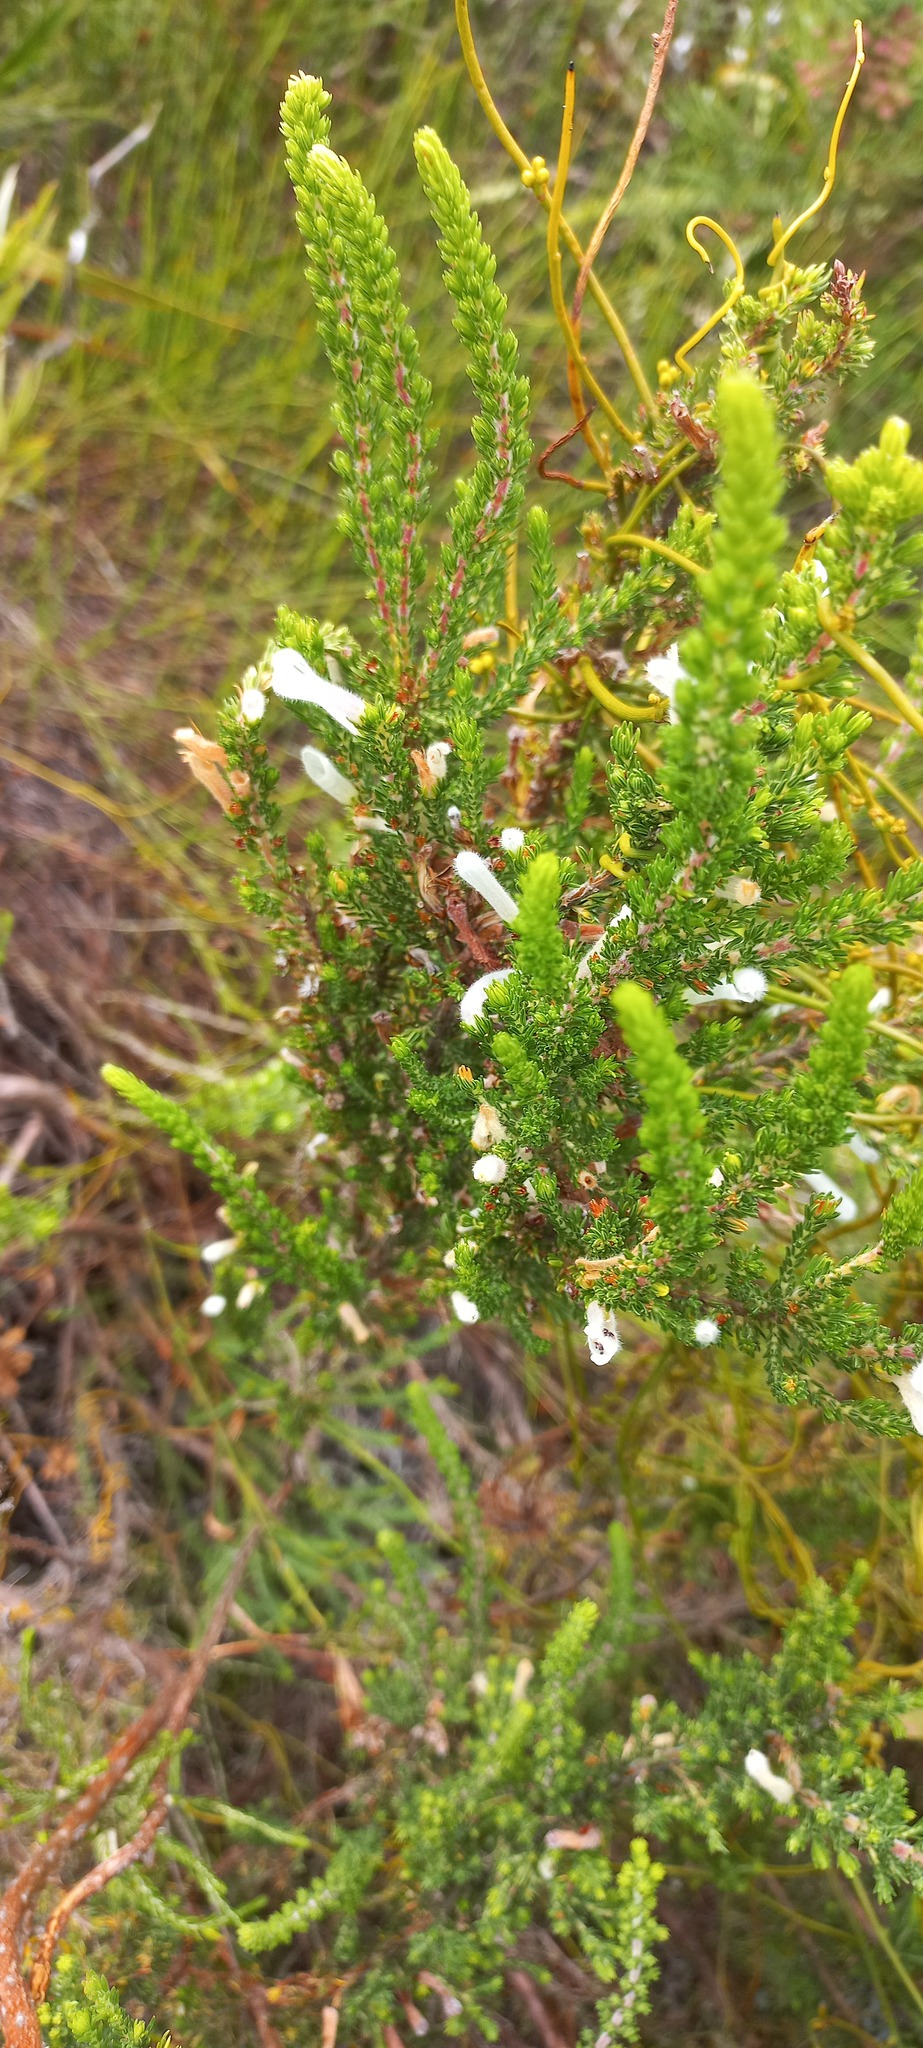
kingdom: Plantae
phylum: Tracheophyta
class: Magnoliopsida
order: Ericales
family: Ericaceae
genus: Erica
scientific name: Erica perspicua
